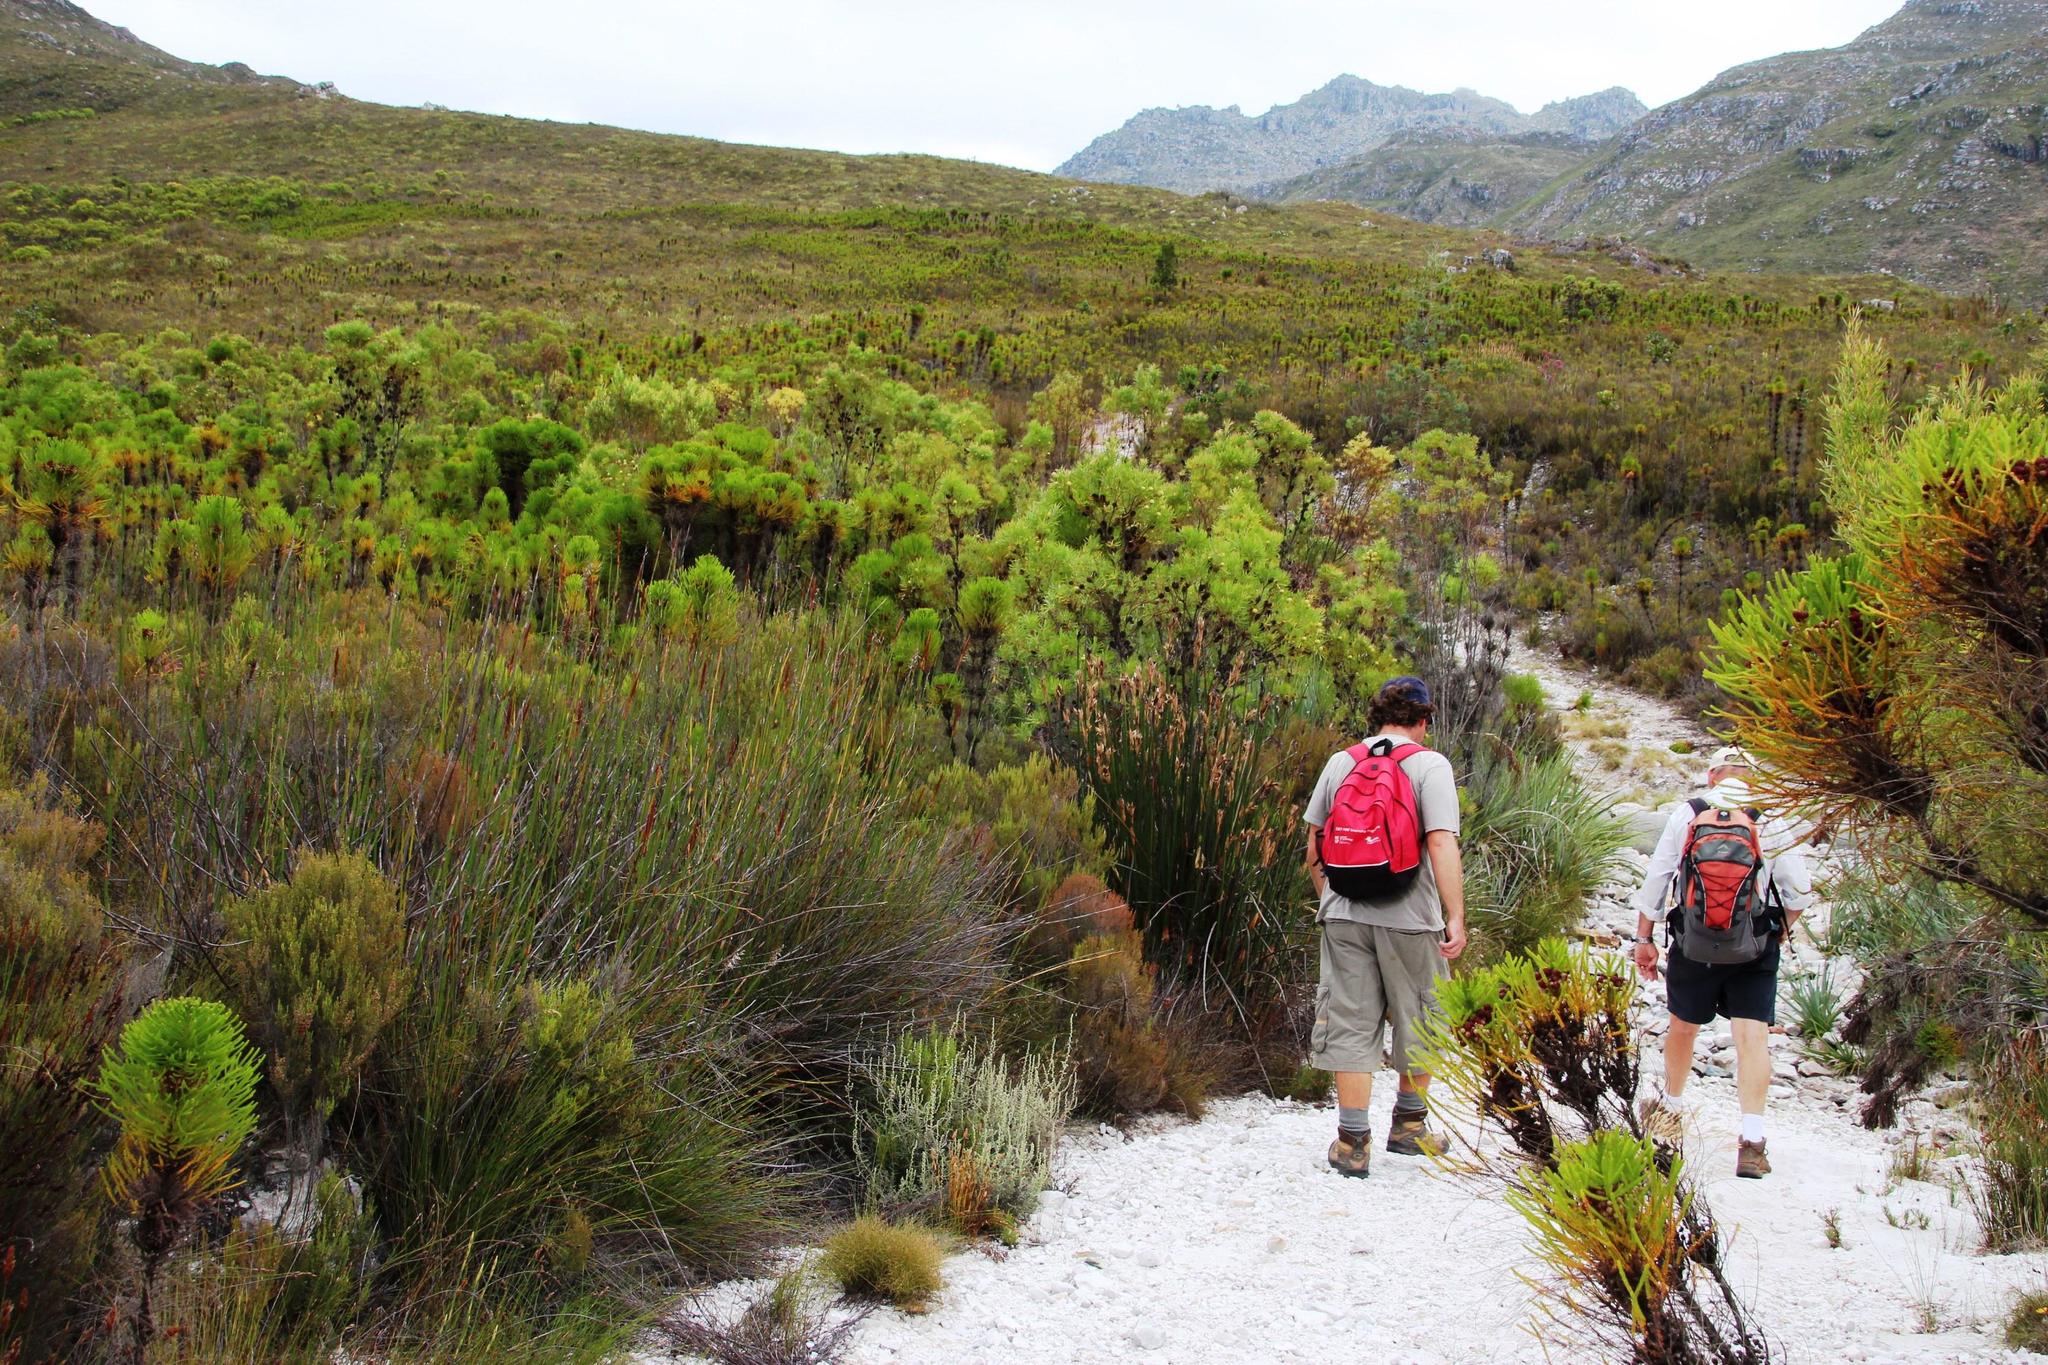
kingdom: Plantae
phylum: Tracheophyta
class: Magnoliopsida
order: Bruniales
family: Bruniaceae
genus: Berzelia
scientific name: Berzelia alopecurioides
